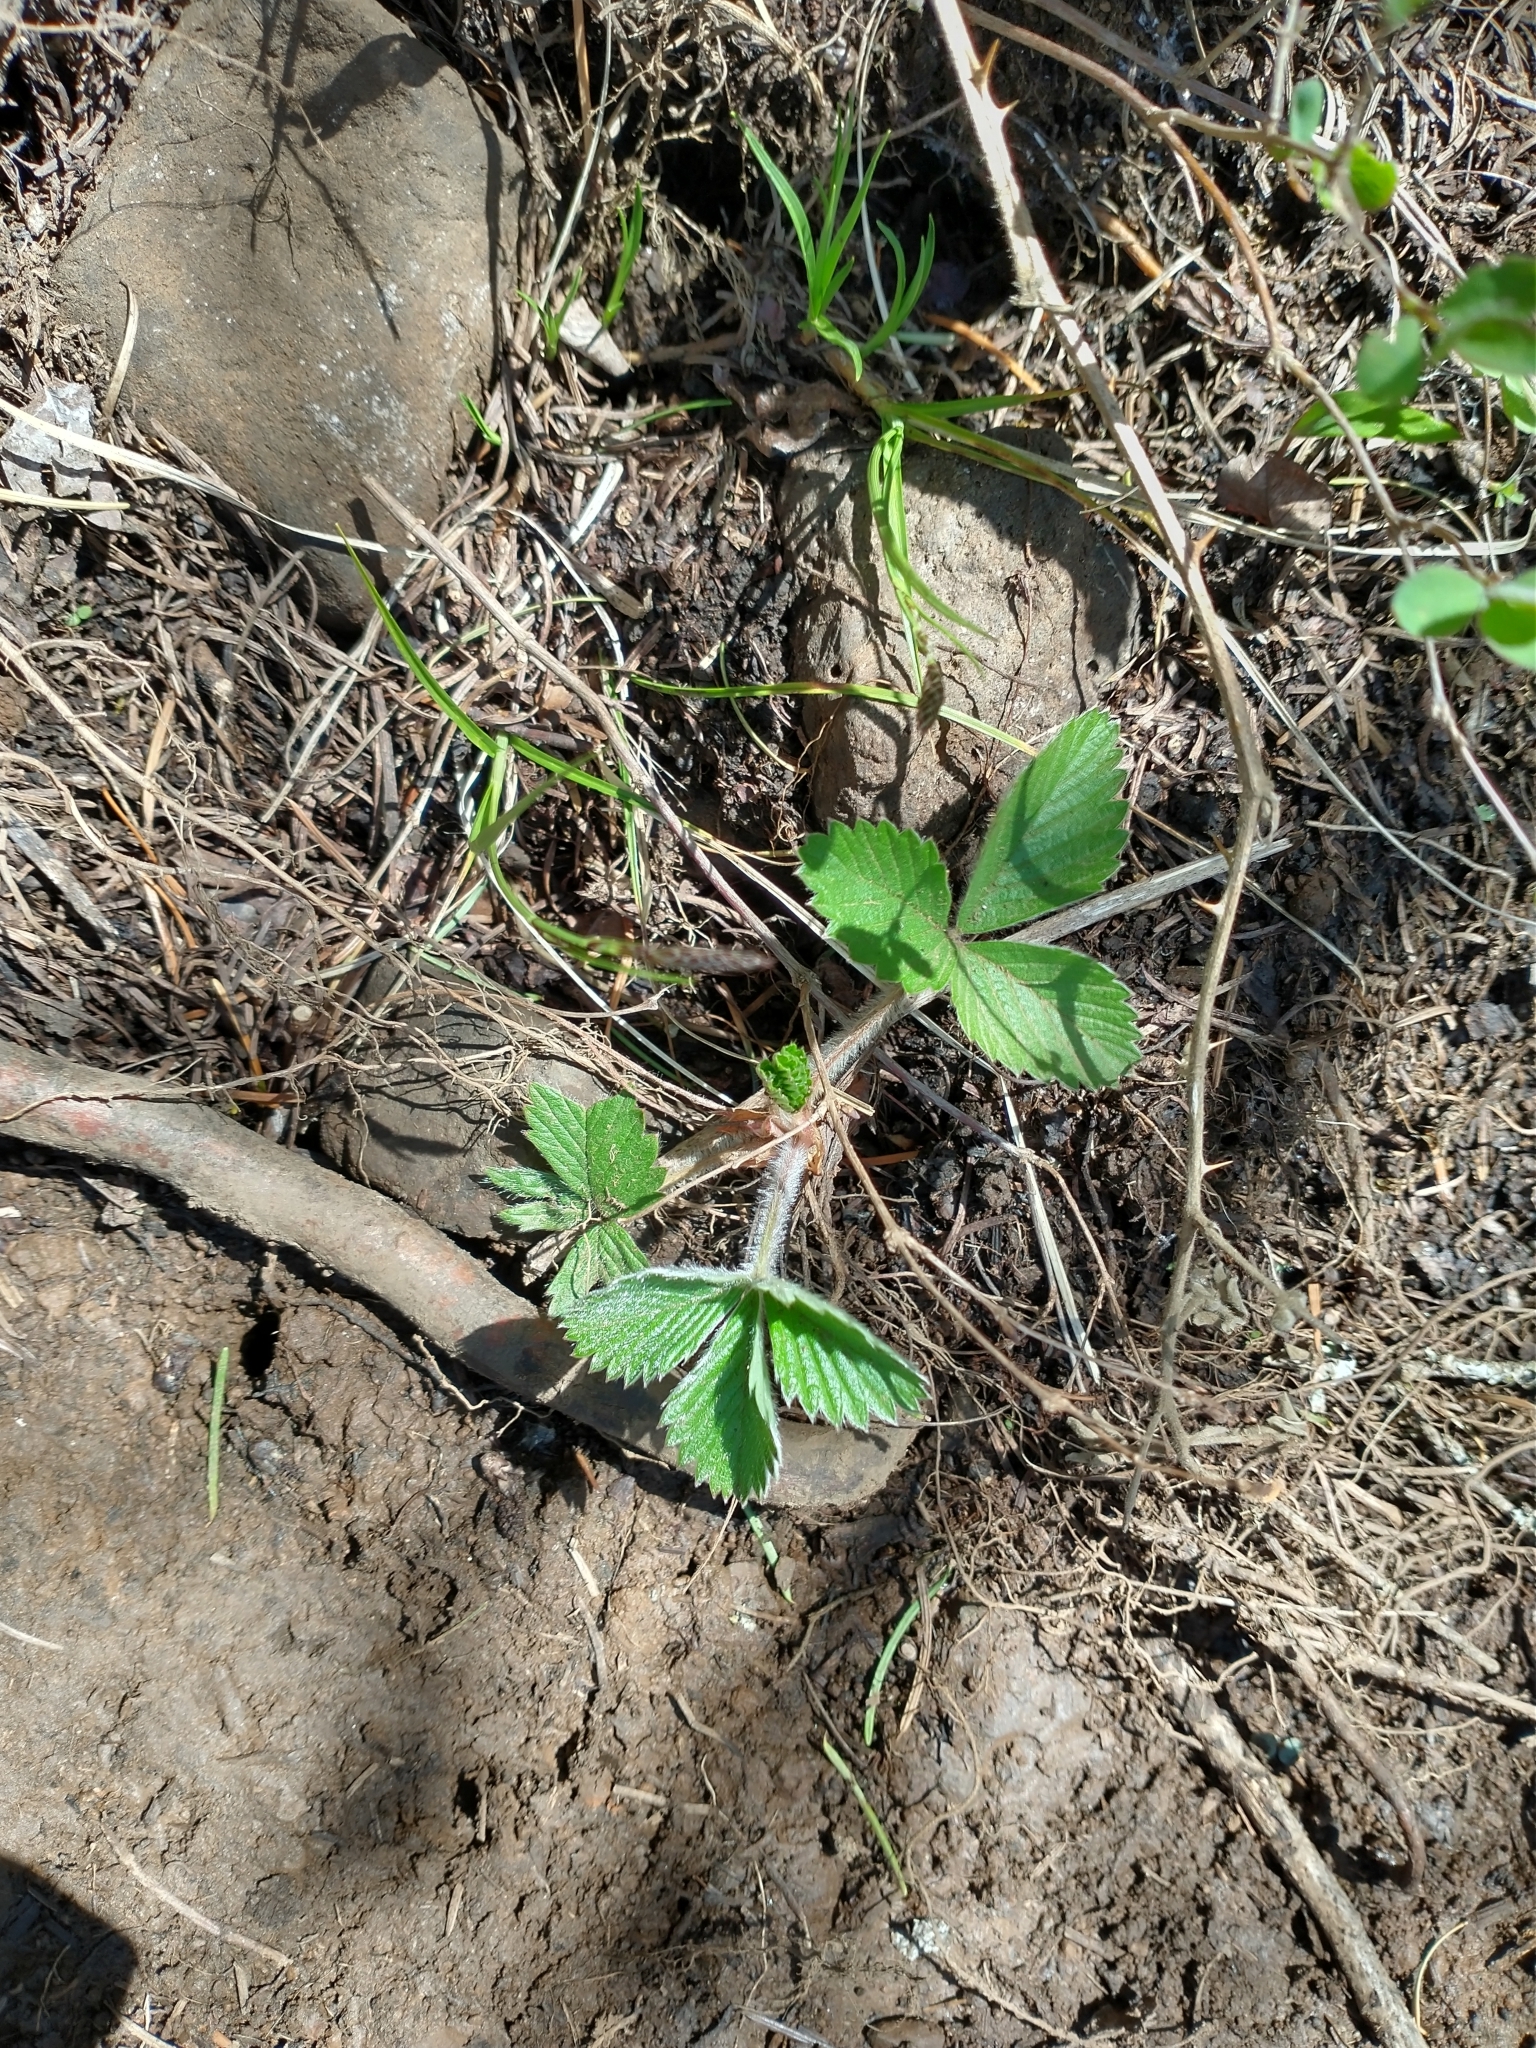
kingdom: Plantae
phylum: Tracheophyta
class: Magnoliopsida
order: Rosales
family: Rosaceae
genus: Fragaria
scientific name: Fragaria vesca
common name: Wild strawberry
